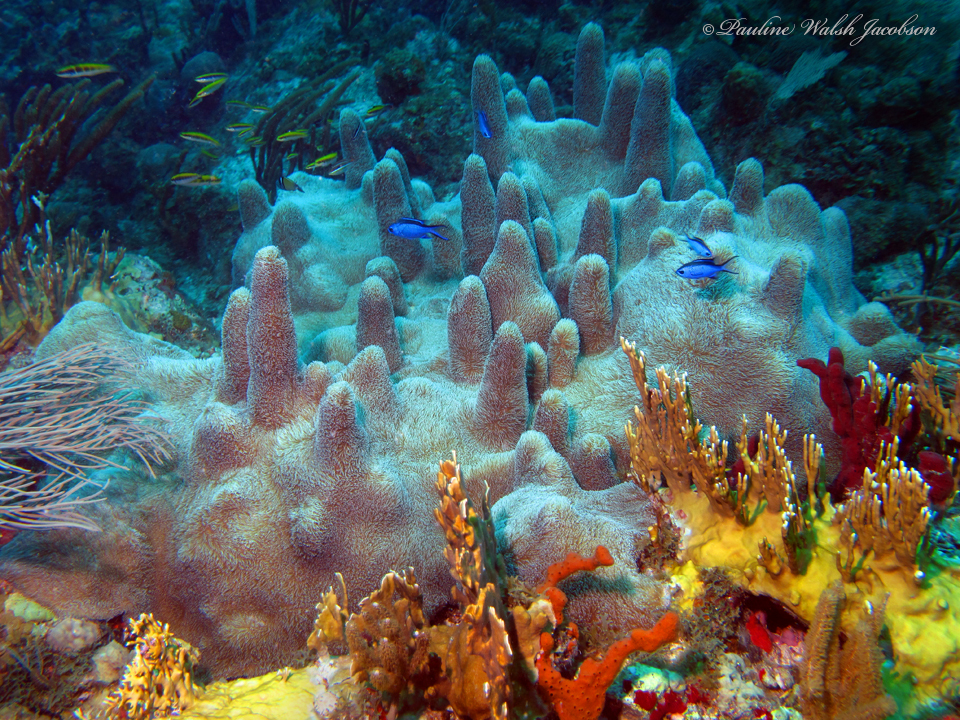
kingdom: Animalia
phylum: Cnidaria
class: Anthozoa
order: Scleractinia
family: Meandrinidae
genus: Dendrogyra
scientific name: Dendrogyra cylindrus
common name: Pillar coral
